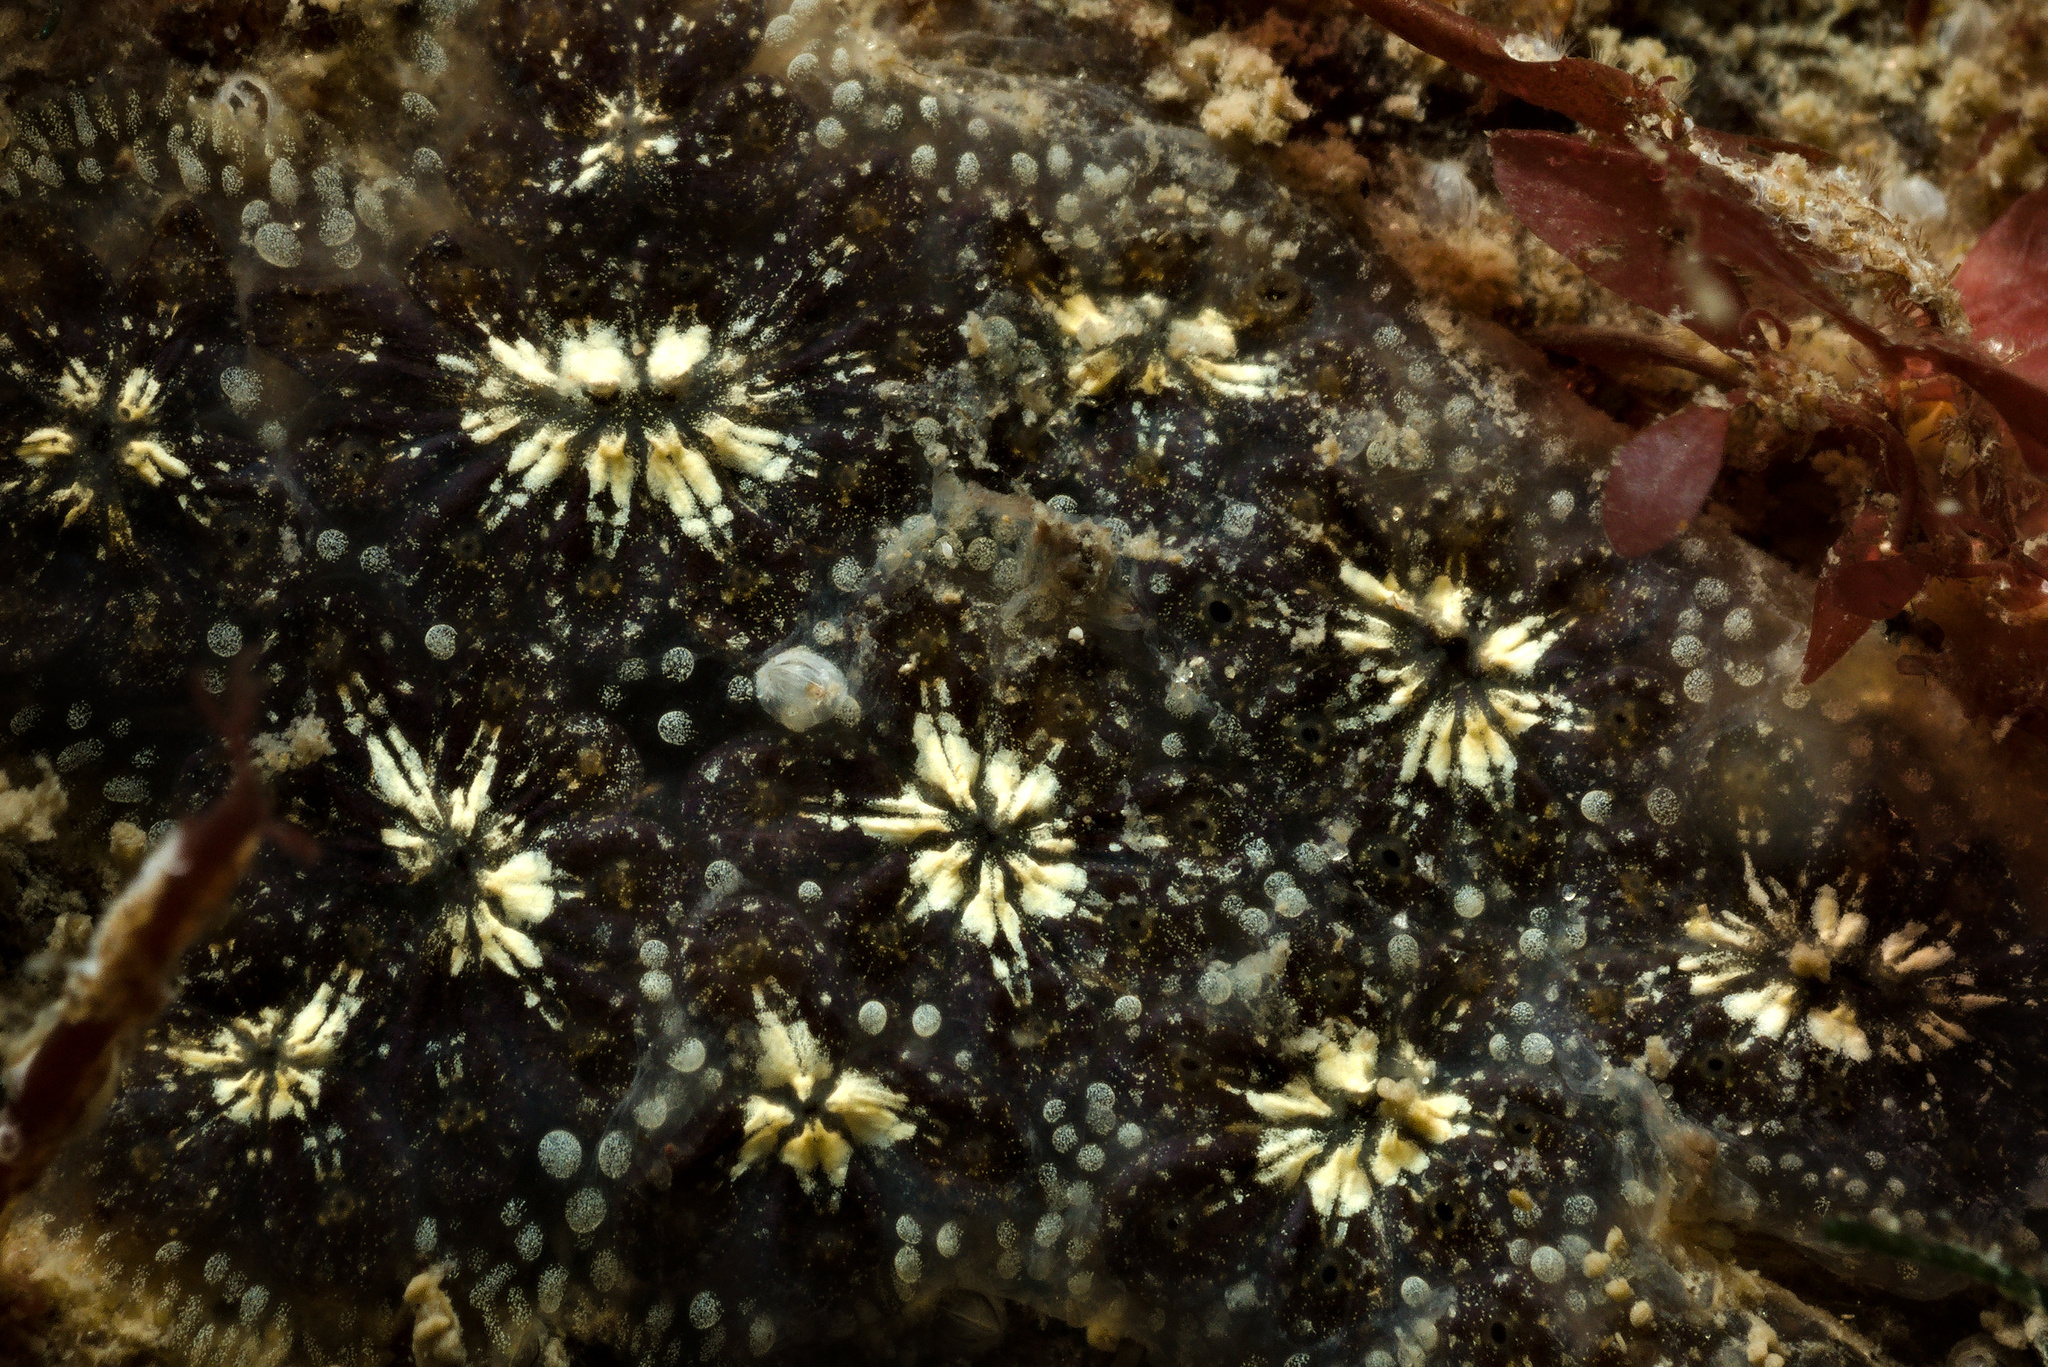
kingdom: Animalia
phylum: Chordata
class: Ascidiacea
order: Stolidobranchia
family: Styelidae
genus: Botryllus
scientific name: Botryllus schlosseri
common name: Golden star tunicate
